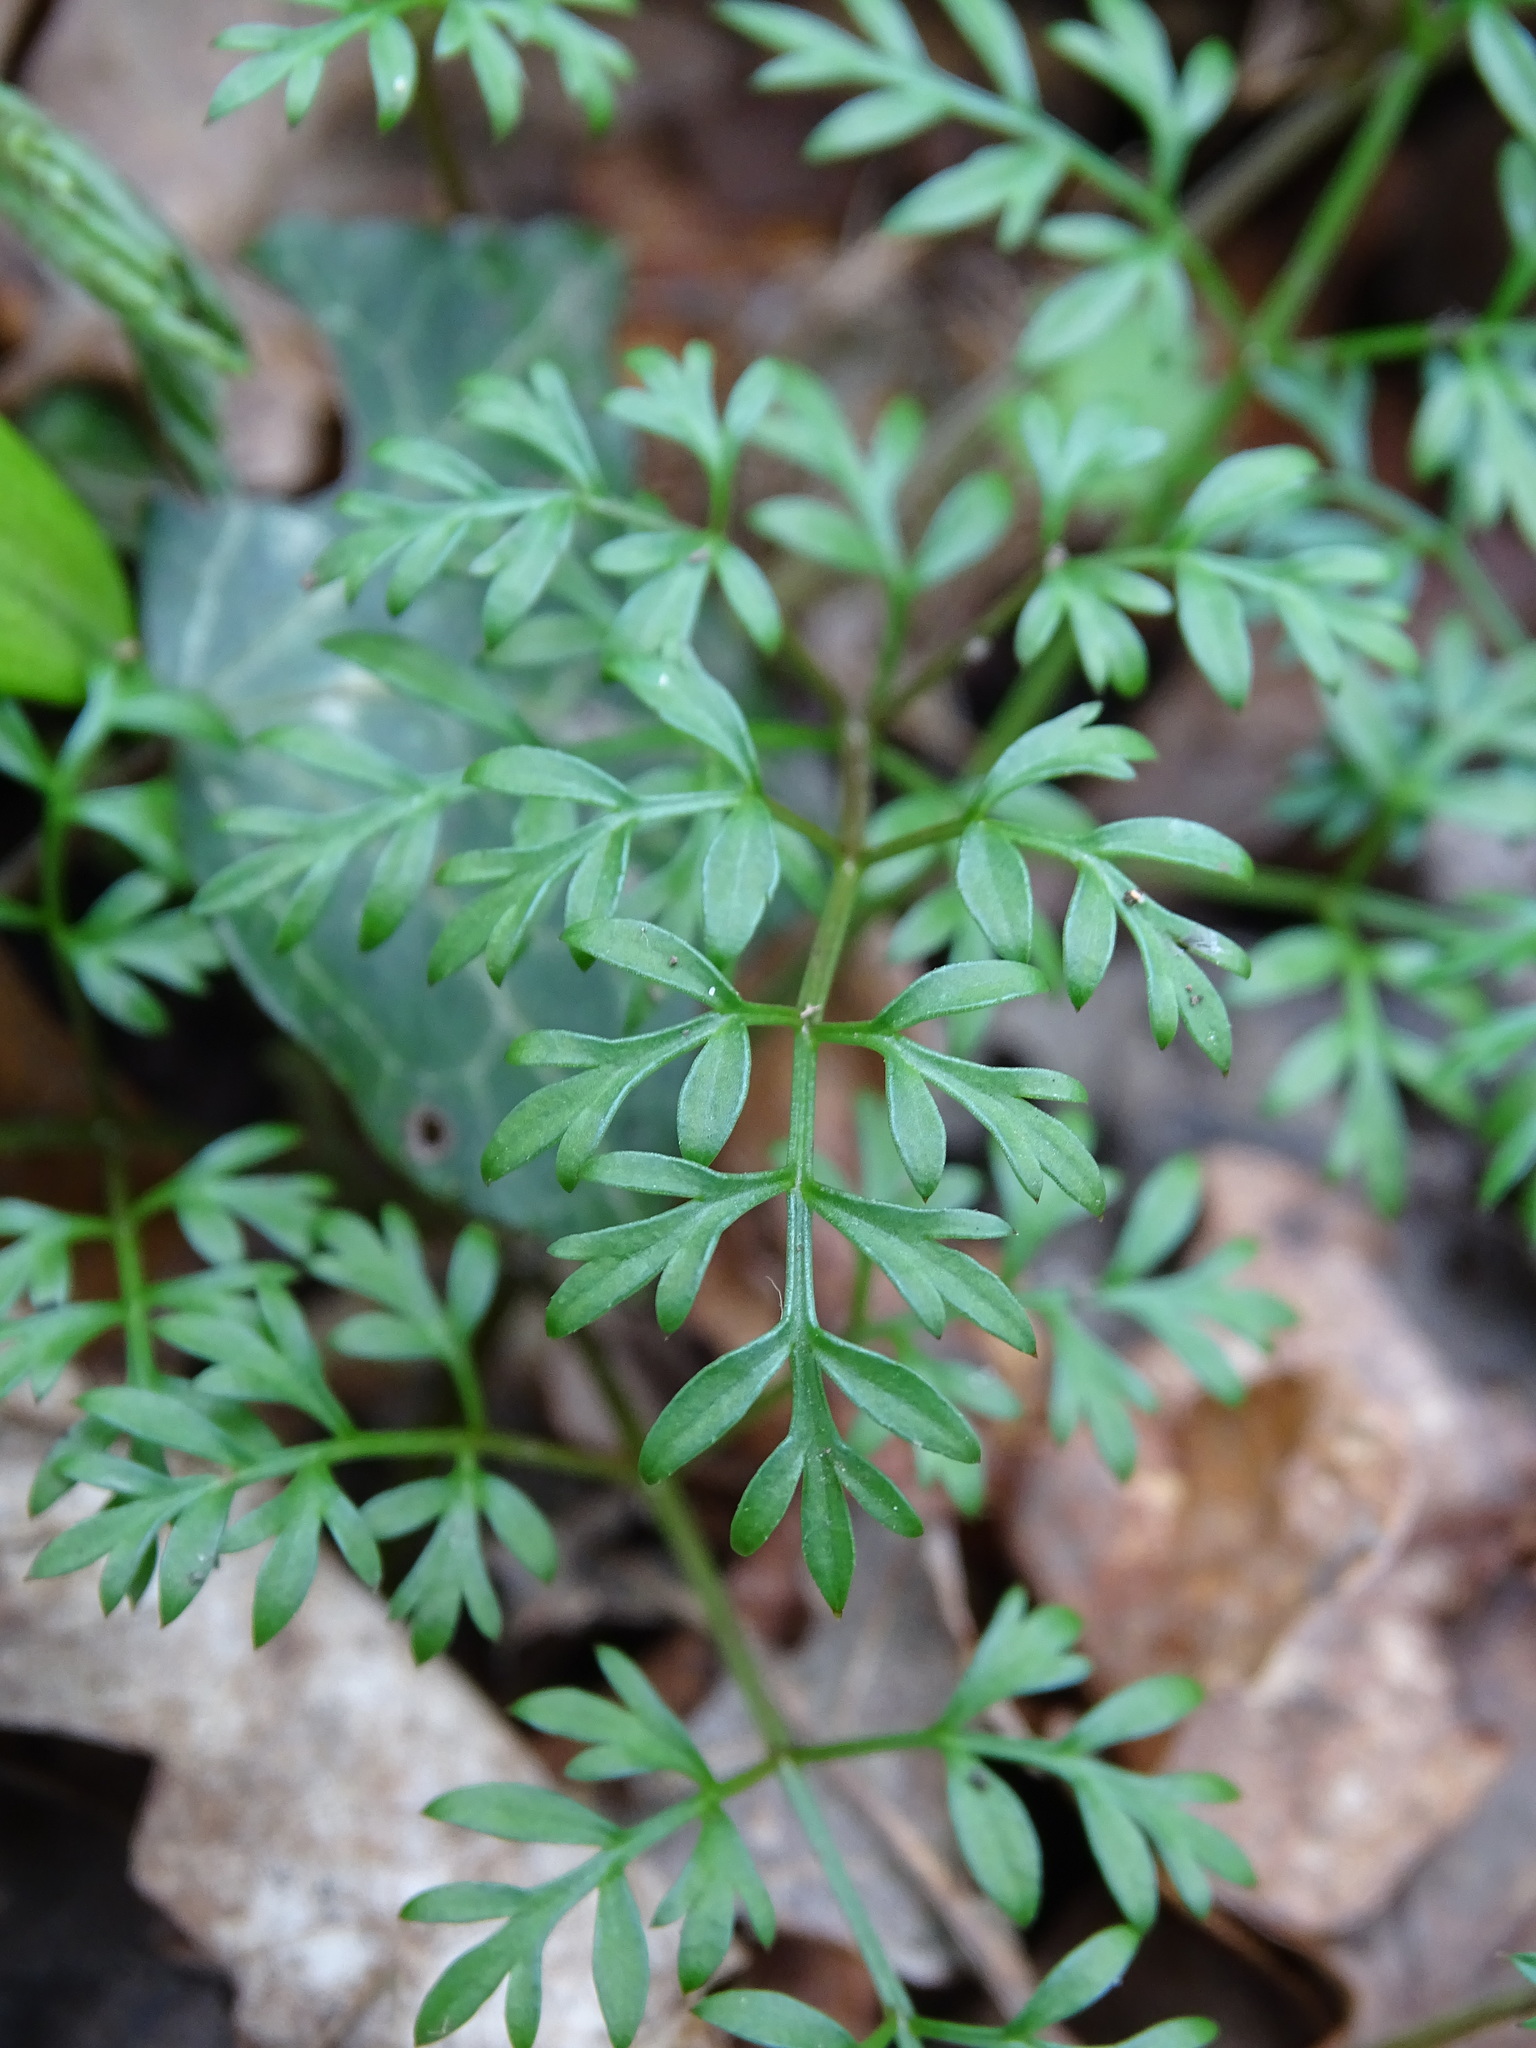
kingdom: Plantae
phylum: Tracheophyta
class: Magnoliopsida
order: Apiales
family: Apiaceae
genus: Conopodium
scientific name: Conopodium majus
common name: Pignut
